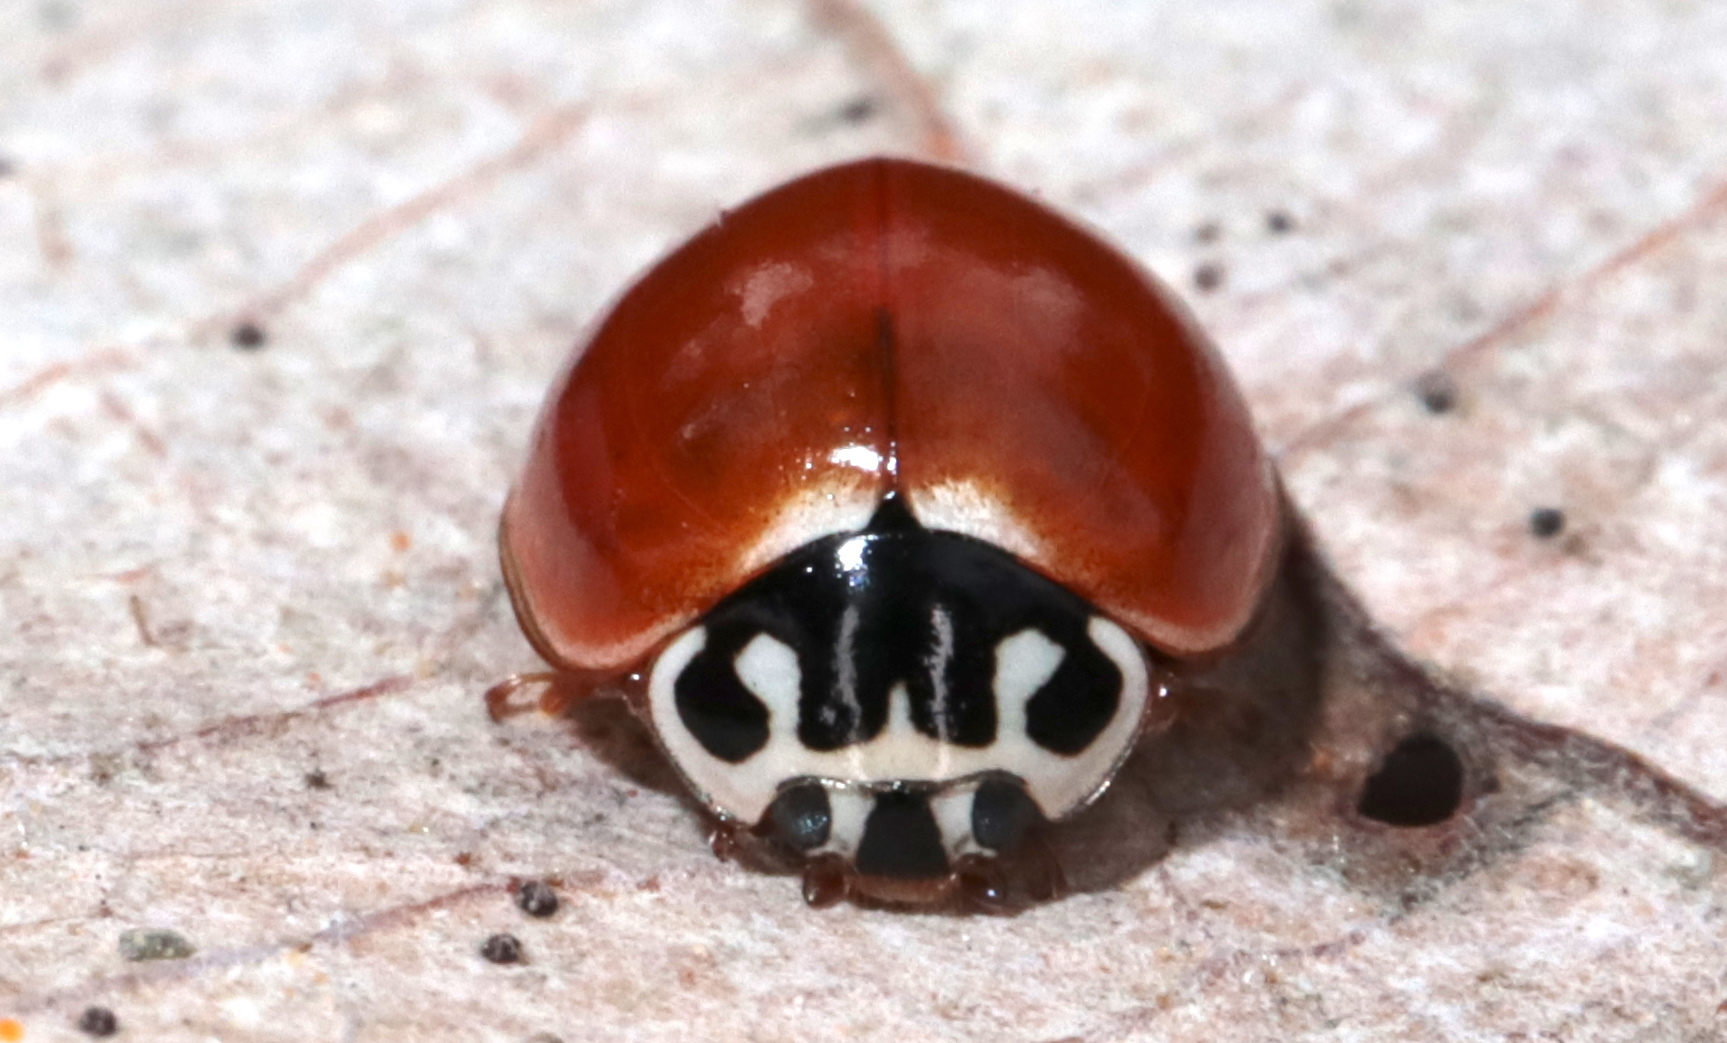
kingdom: Animalia
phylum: Arthropoda
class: Insecta
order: Coleoptera
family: Coccinellidae
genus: Cycloneda
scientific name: Cycloneda munda
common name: Polished lady beetle
